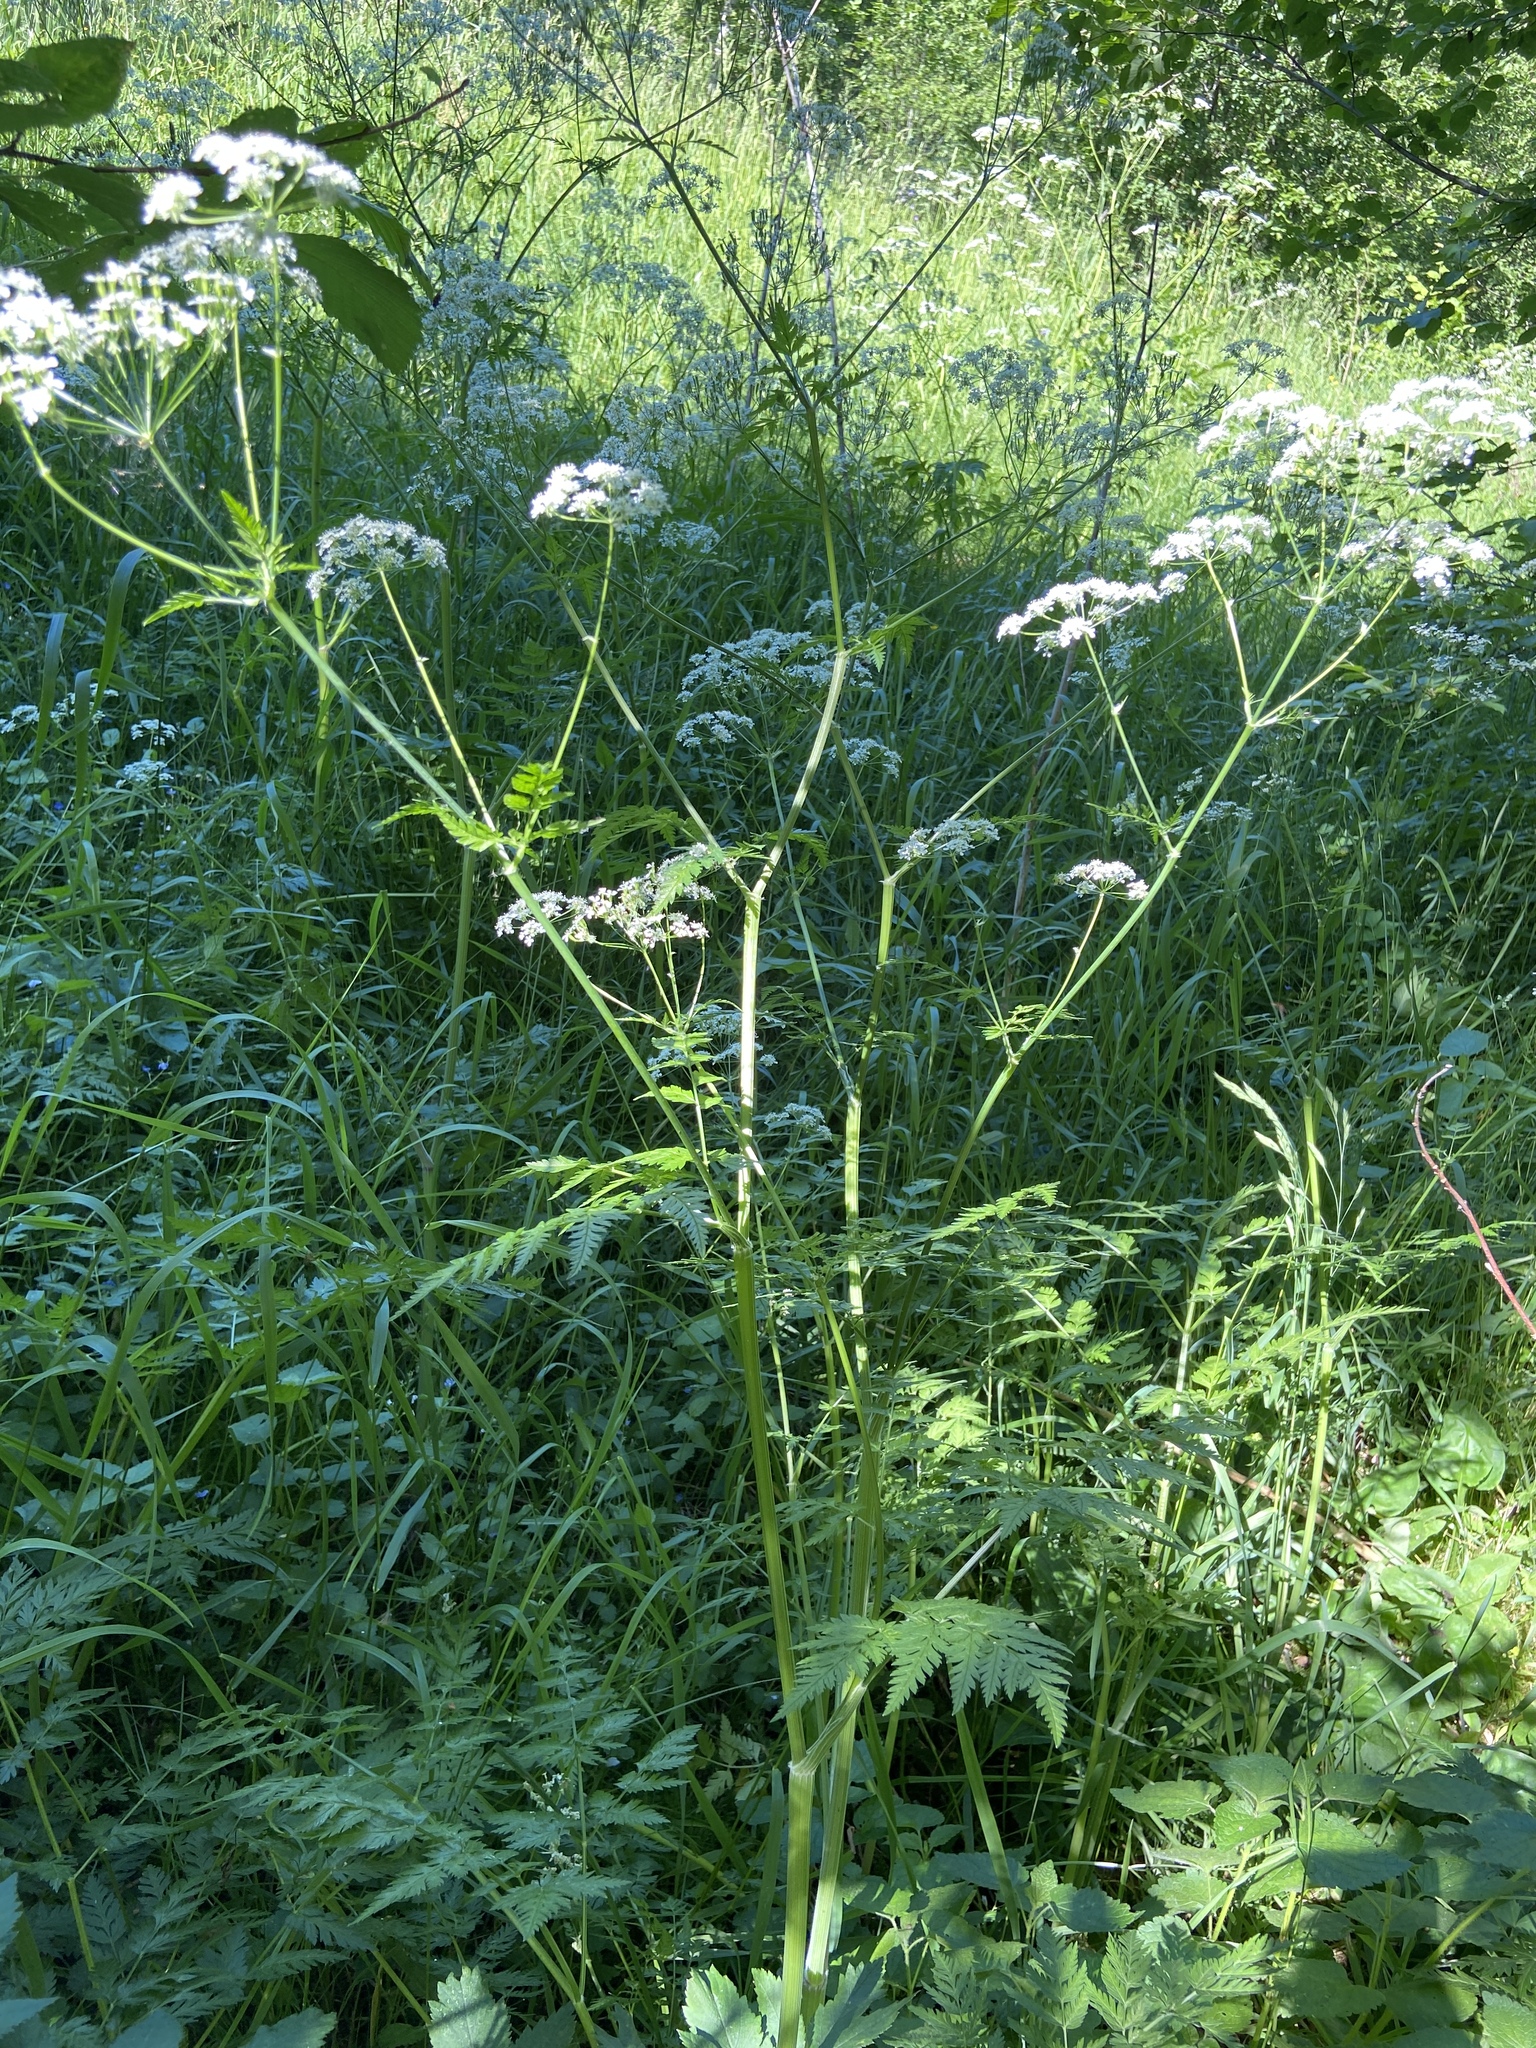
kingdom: Plantae
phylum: Tracheophyta
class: Magnoliopsida
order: Apiales
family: Apiaceae
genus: Anthriscus
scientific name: Anthriscus sylvestris
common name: Cow parsley
